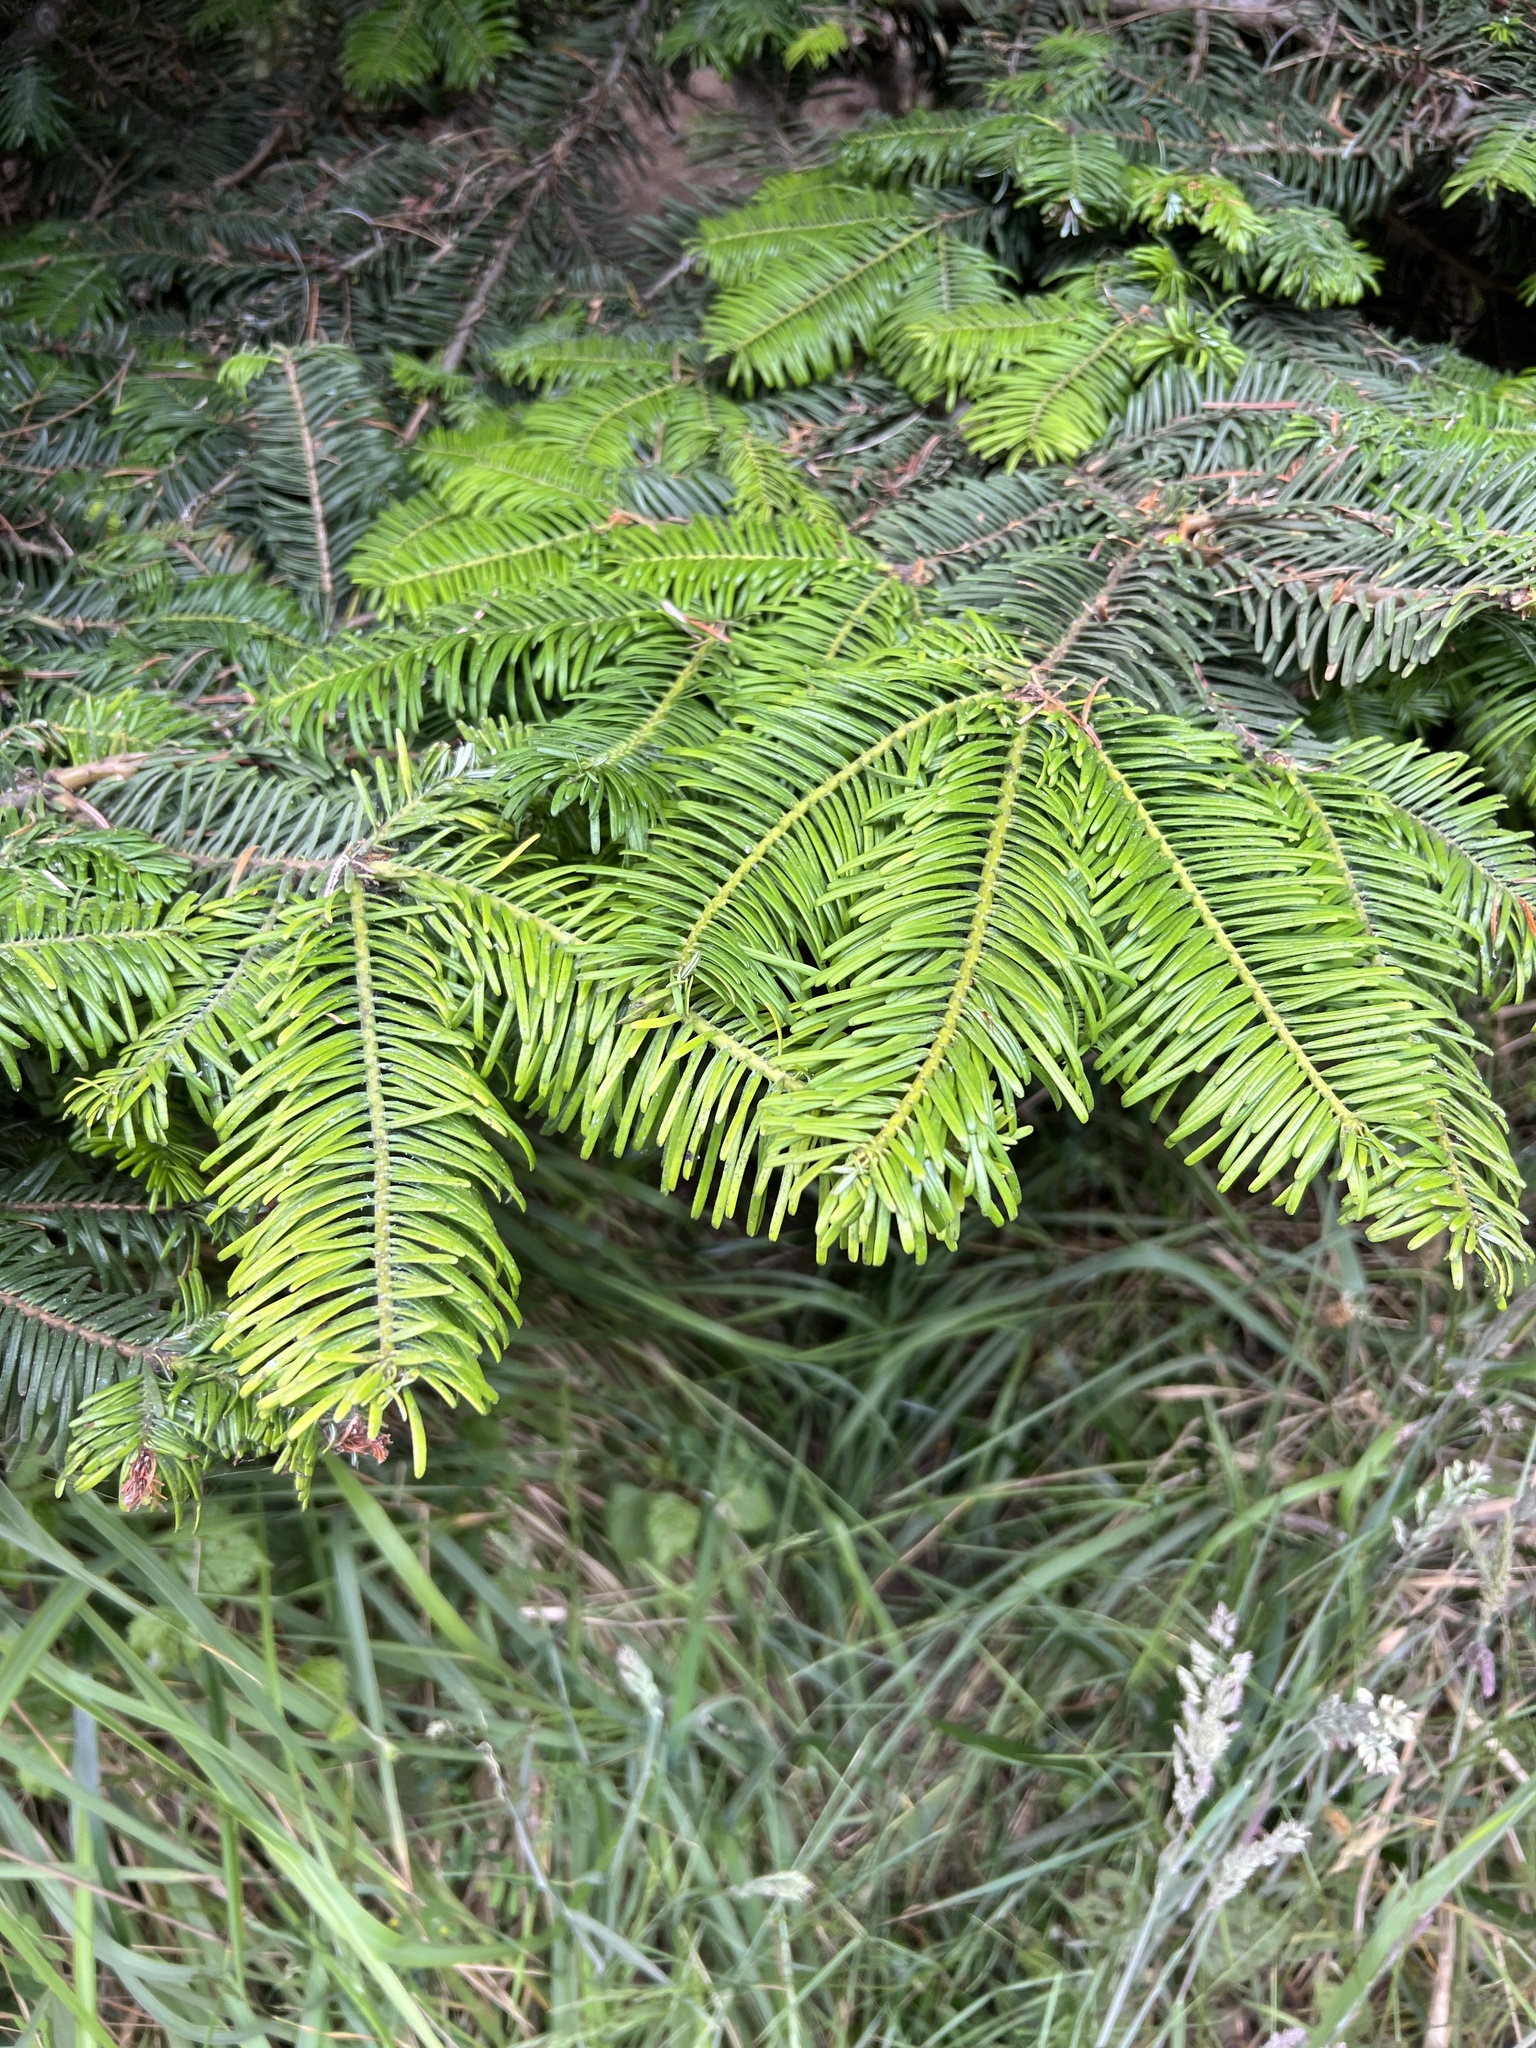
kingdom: Plantae
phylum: Tracheophyta
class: Pinopsida
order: Pinales
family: Pinaceae
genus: Abies
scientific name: Abies grandis
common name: Giant fir
